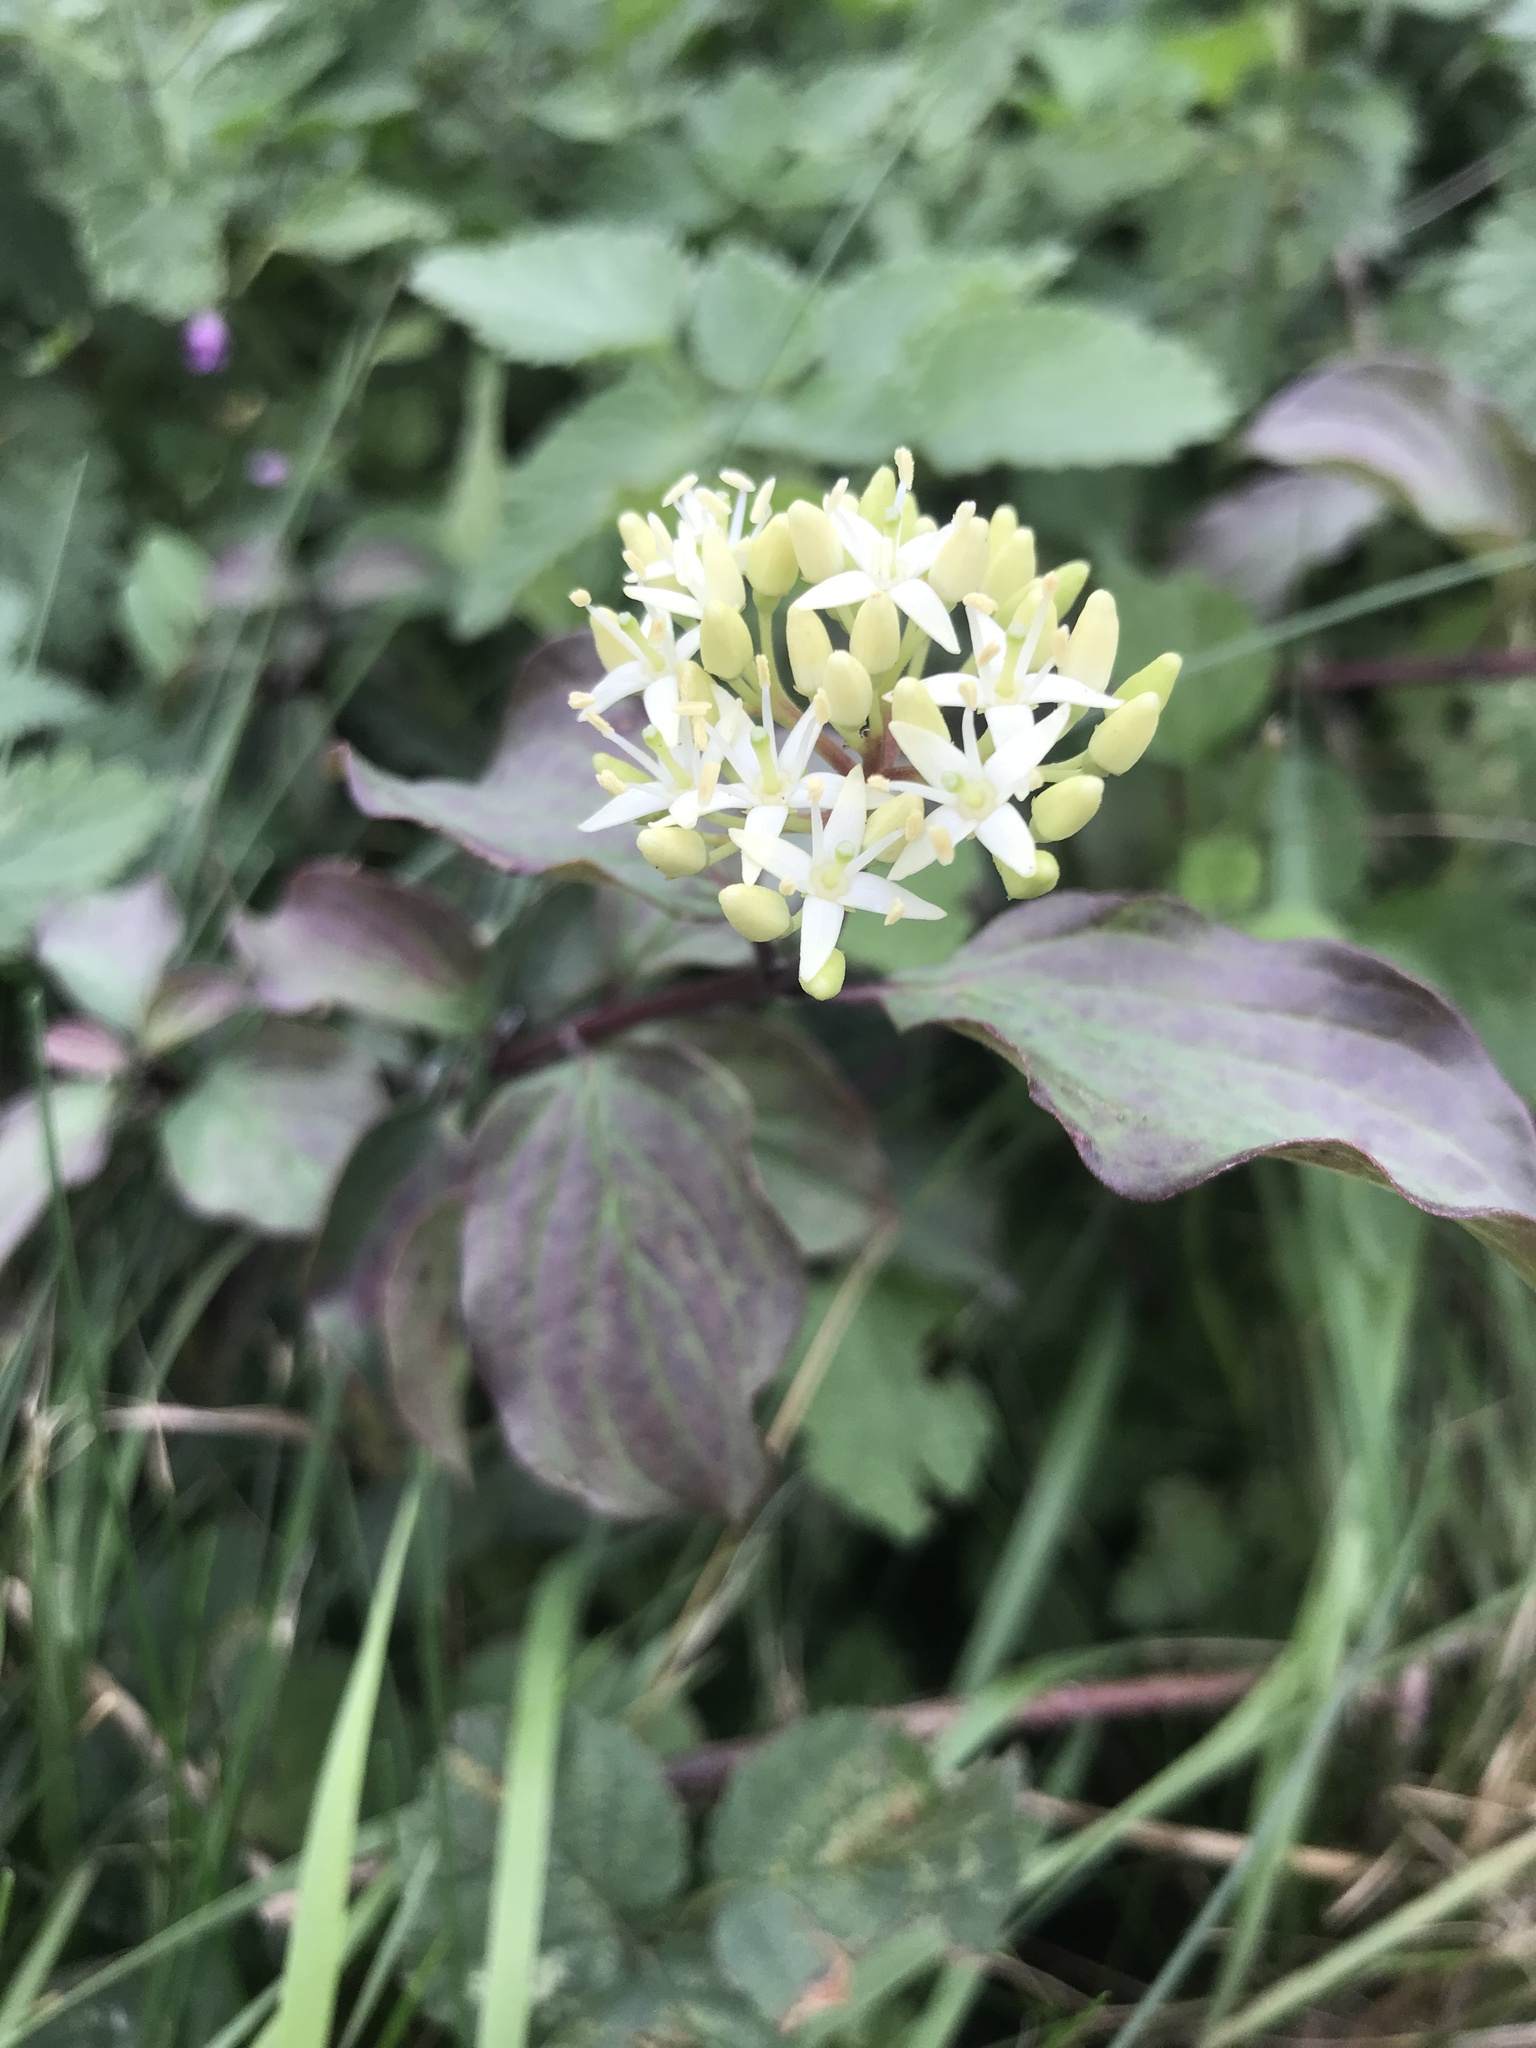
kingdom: Plantae
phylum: Tracheophyta
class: Magnoliopsida
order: Cornales
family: Cornaceae
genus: Cornus
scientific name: Cornus sanguinea
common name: Dogwood
